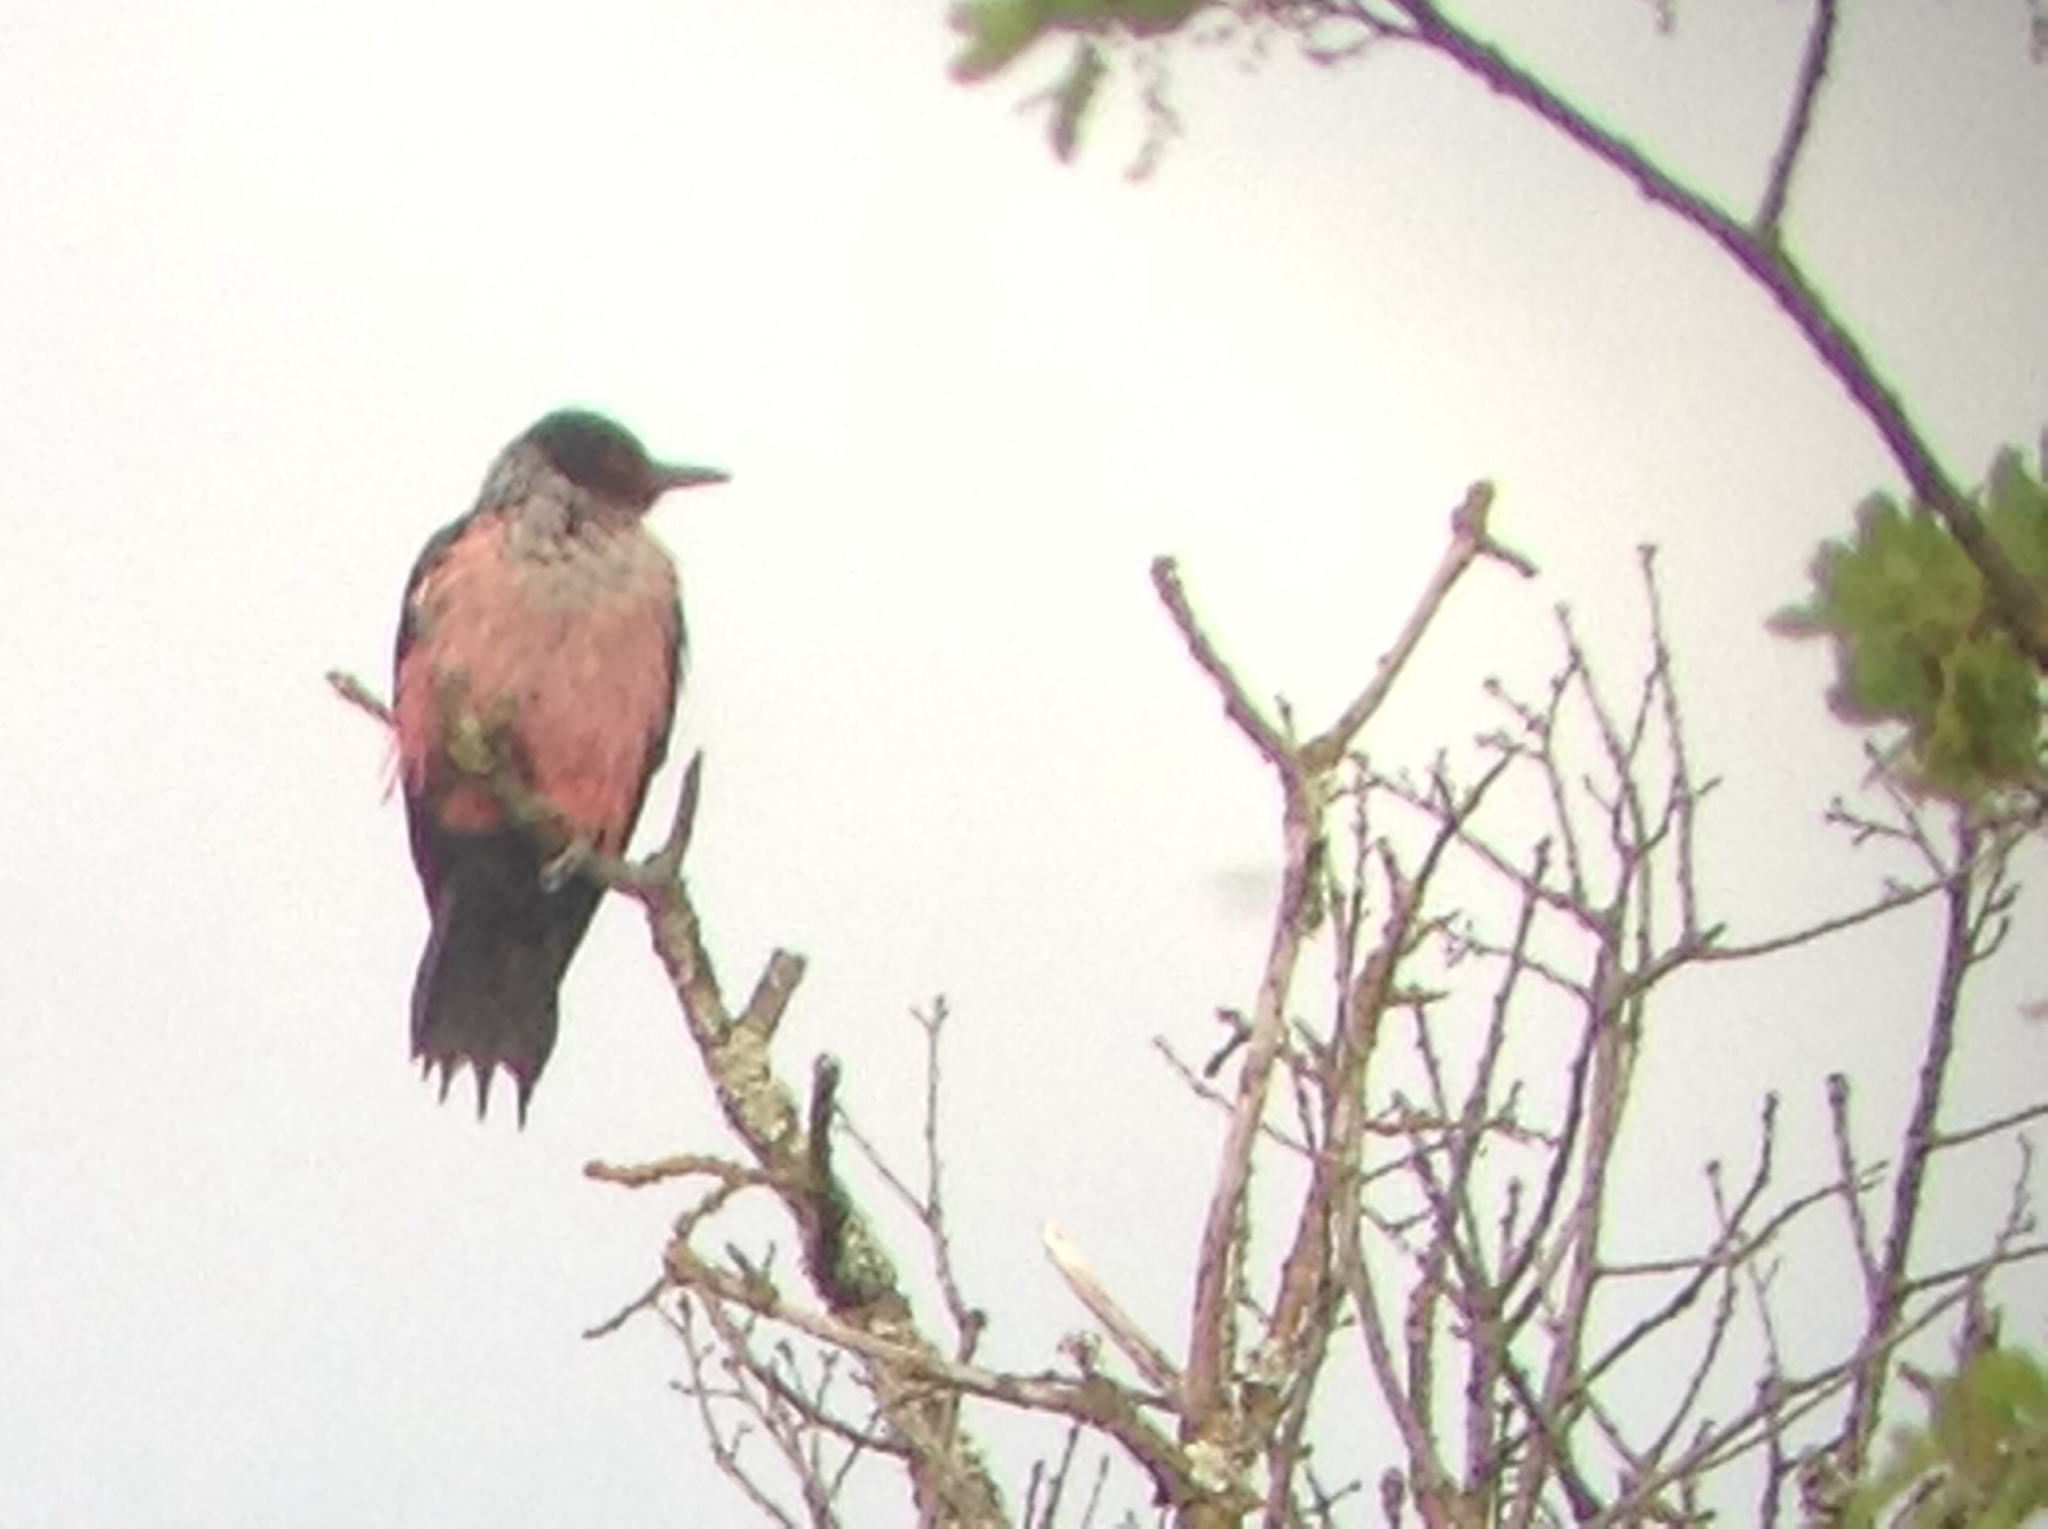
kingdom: Animalia
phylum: Chordata
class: Aves
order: Piciformes
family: Picidae
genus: Melanerpes
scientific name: Melanerpes lewis
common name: Lewis's woodpecker
